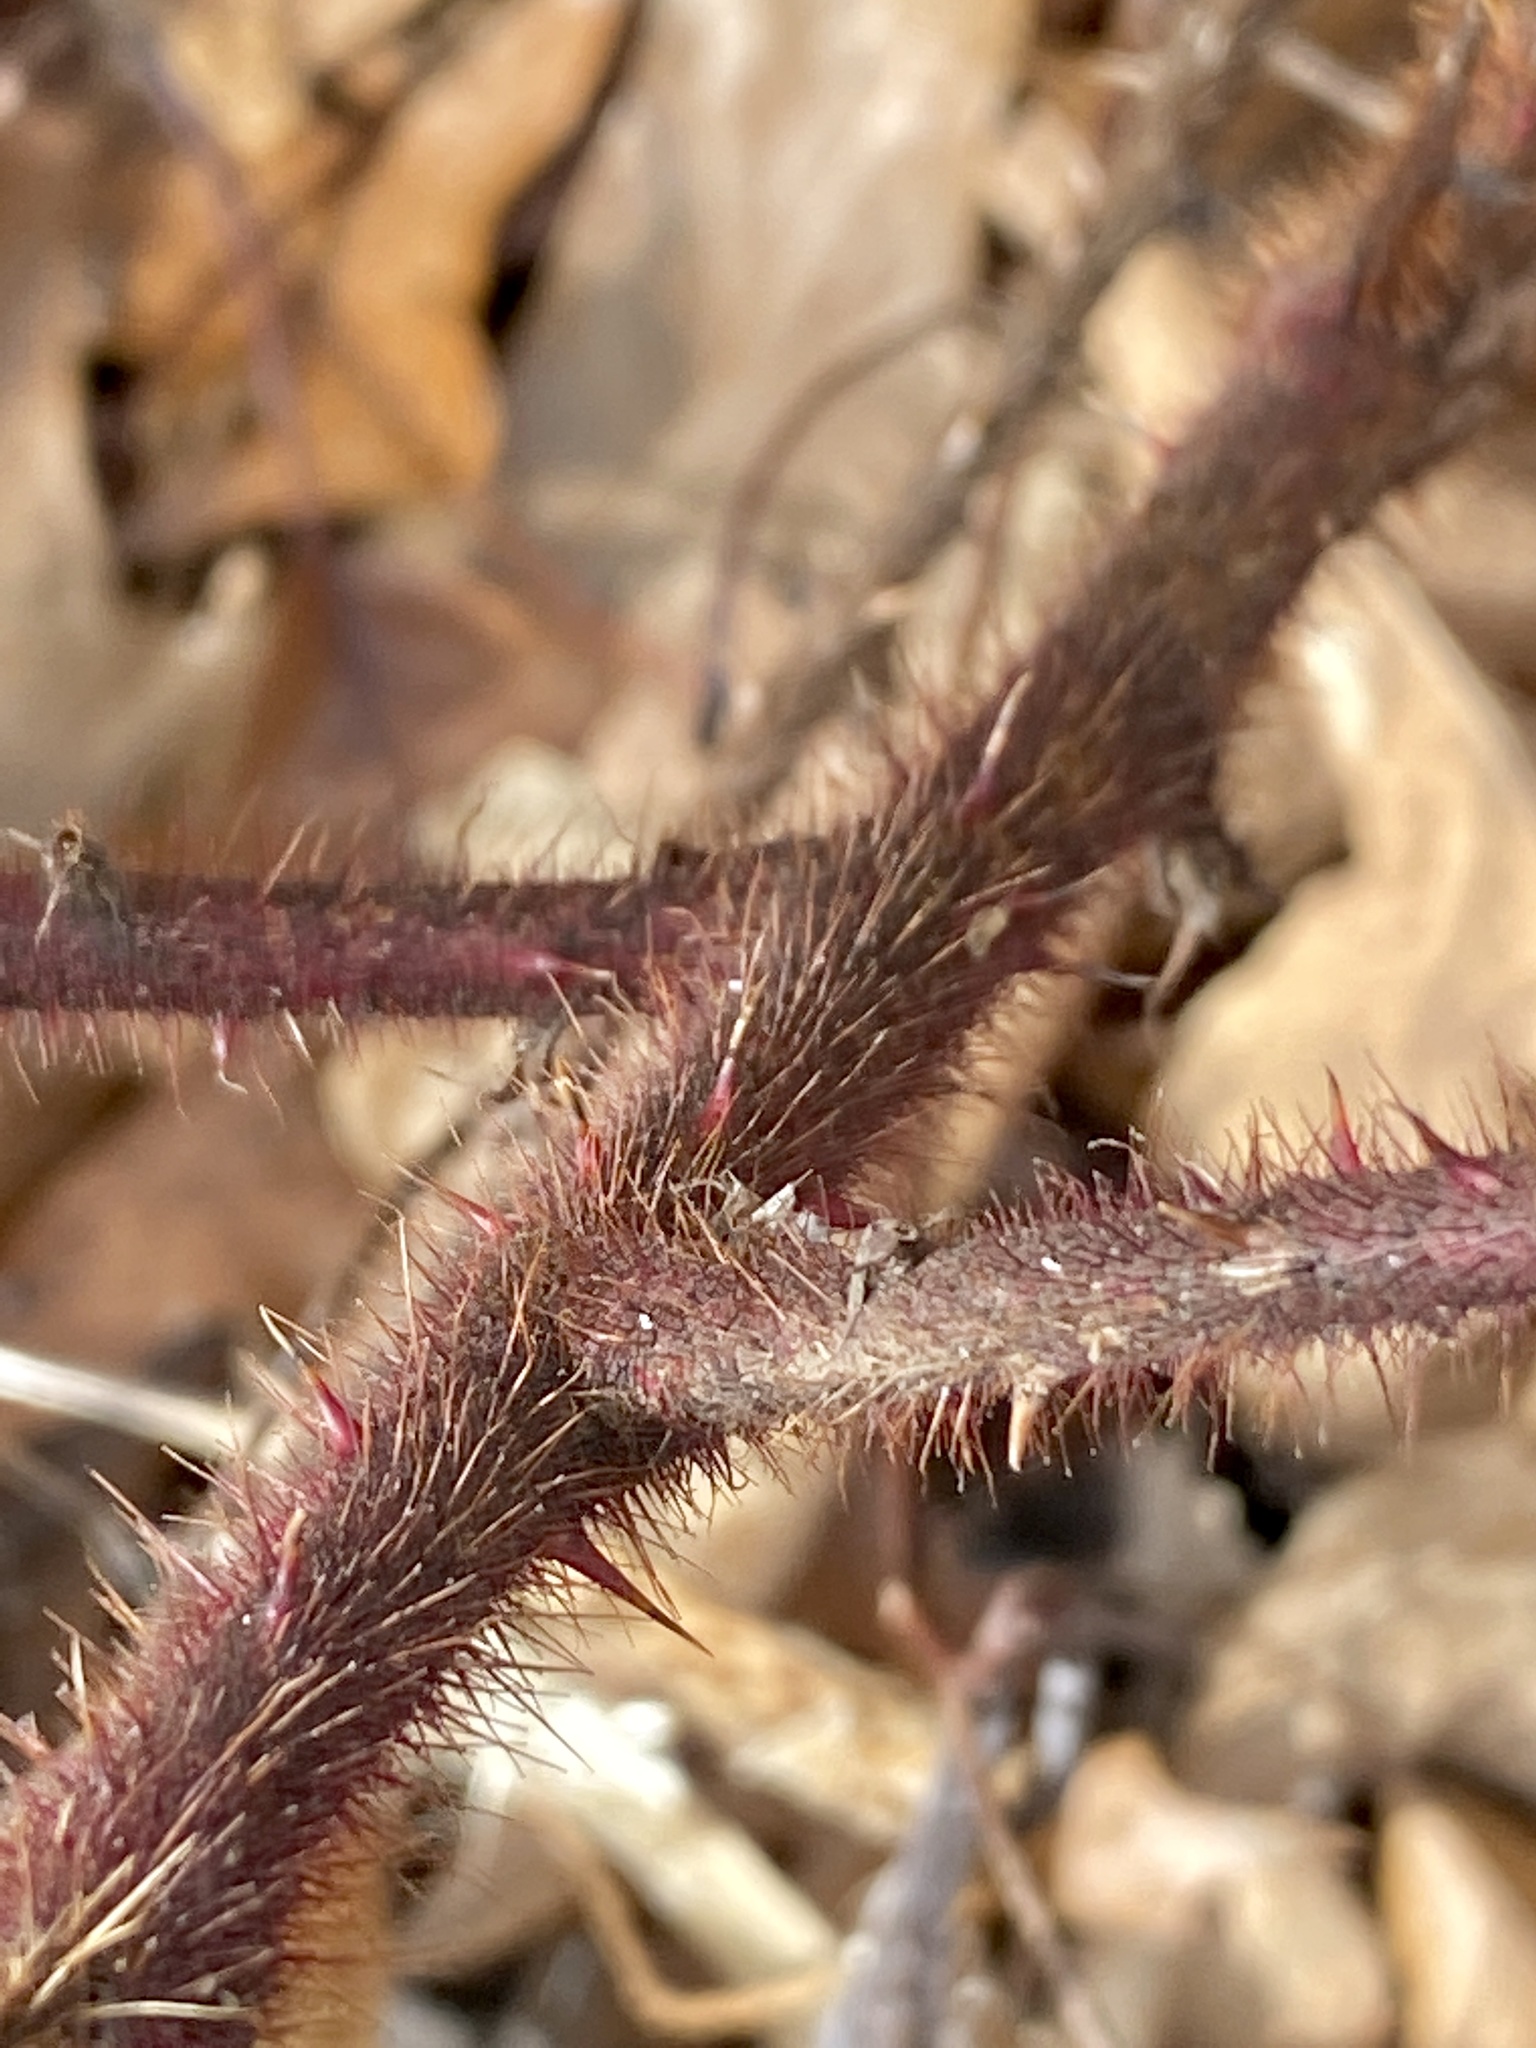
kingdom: Plantae
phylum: Tracheophyta
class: Magnoliopsida
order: Rosales
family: Rosaceae
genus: Rubus
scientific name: Rubus phoenicolasius
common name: Japanese wineberry
